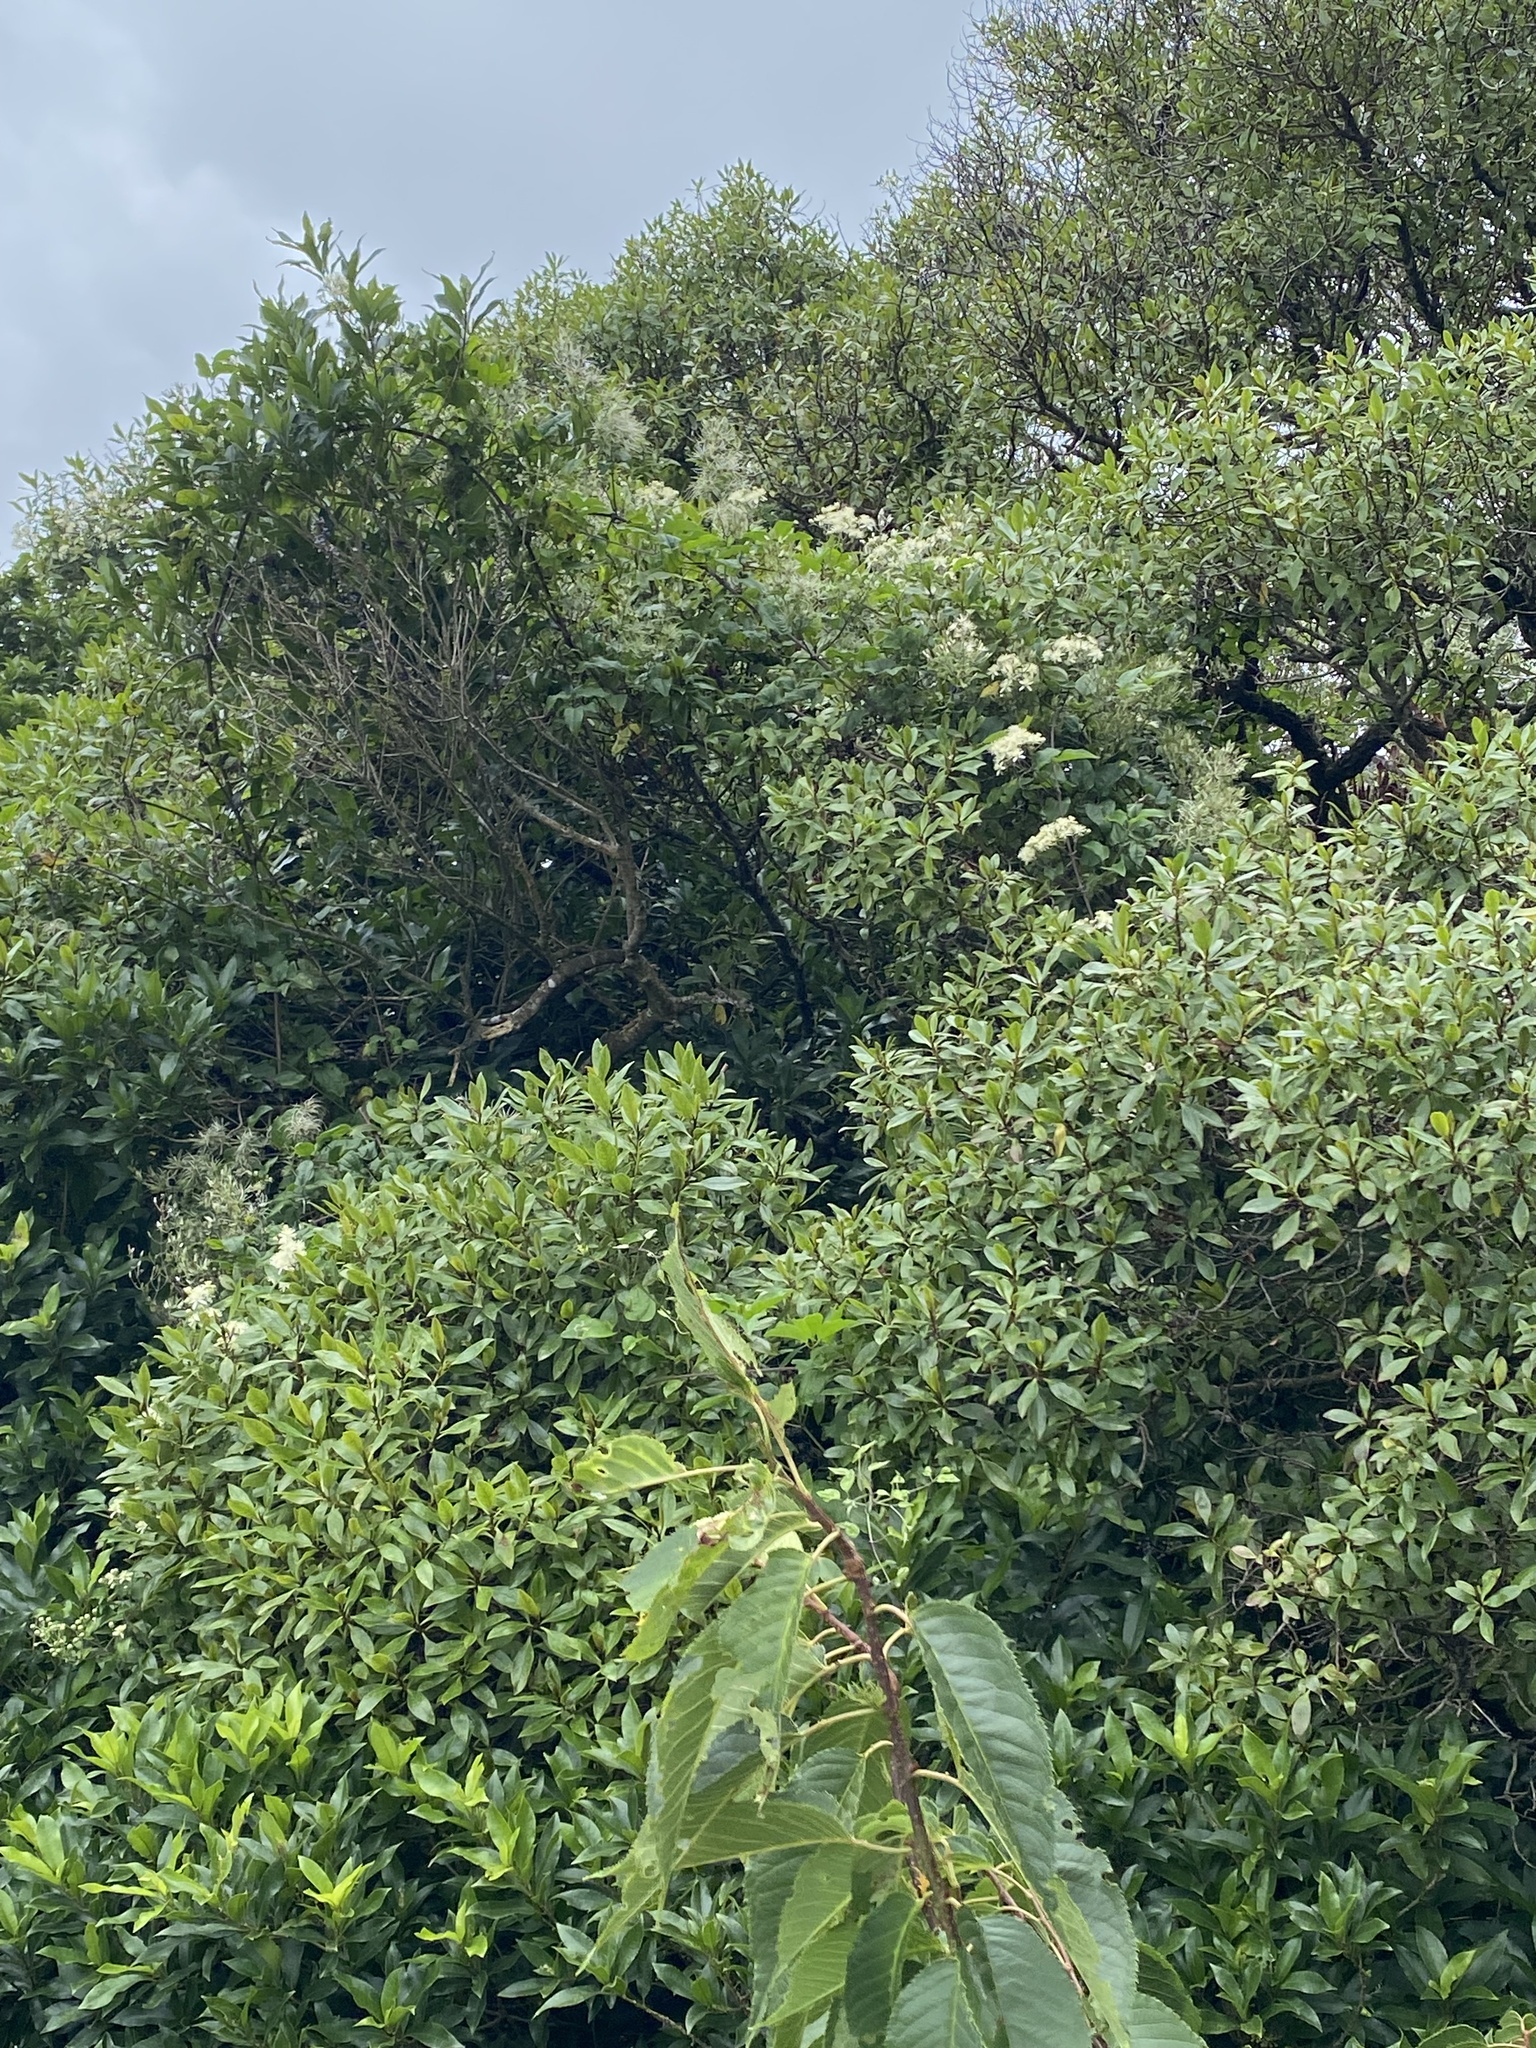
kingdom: Plantae
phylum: Tracheophyta
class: Magnoliopsida
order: Ranunculales
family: Ranunculaceae
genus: Clematis
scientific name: Clematis vitalba
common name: Evergreen clematis
